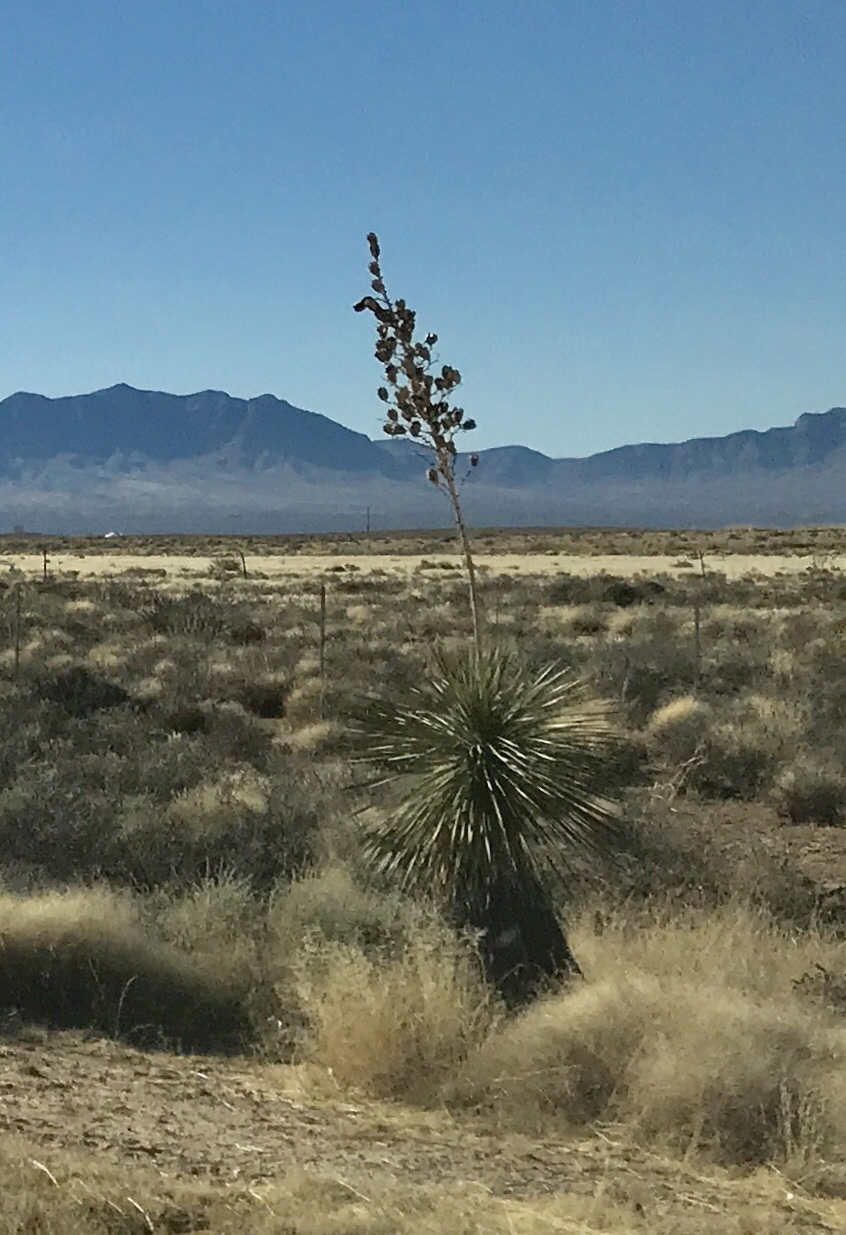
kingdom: Plantae
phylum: Tracheophyta
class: Liliopsida
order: Asparagales
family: Asparagaceae
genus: Yucca
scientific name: Yucca elata
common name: Palmella
